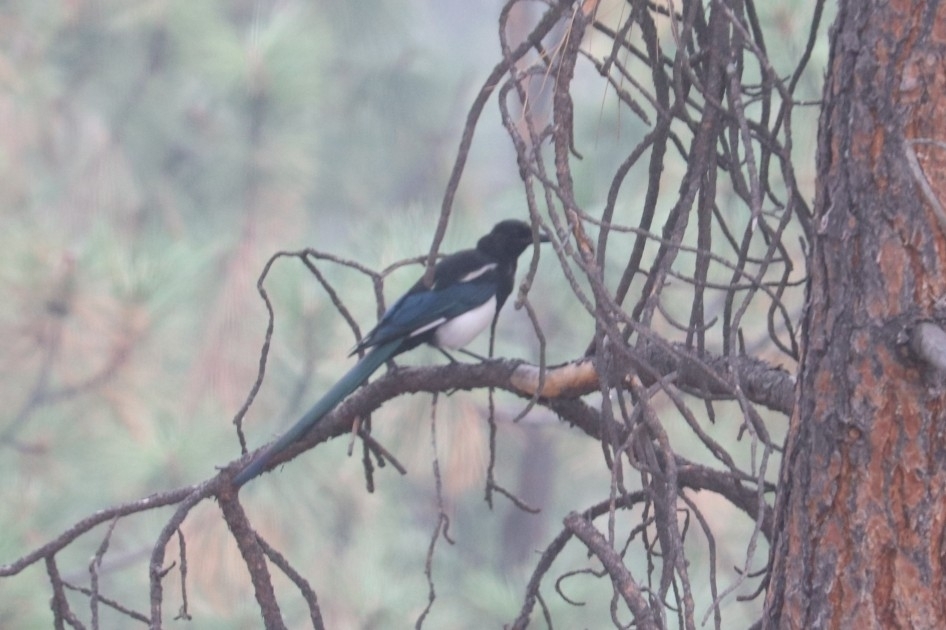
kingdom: Animalia
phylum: Chordata
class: Aves
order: Passeriformes
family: Corvidae
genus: Pica
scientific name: Pica hudsonia
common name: Black-billed magpie
